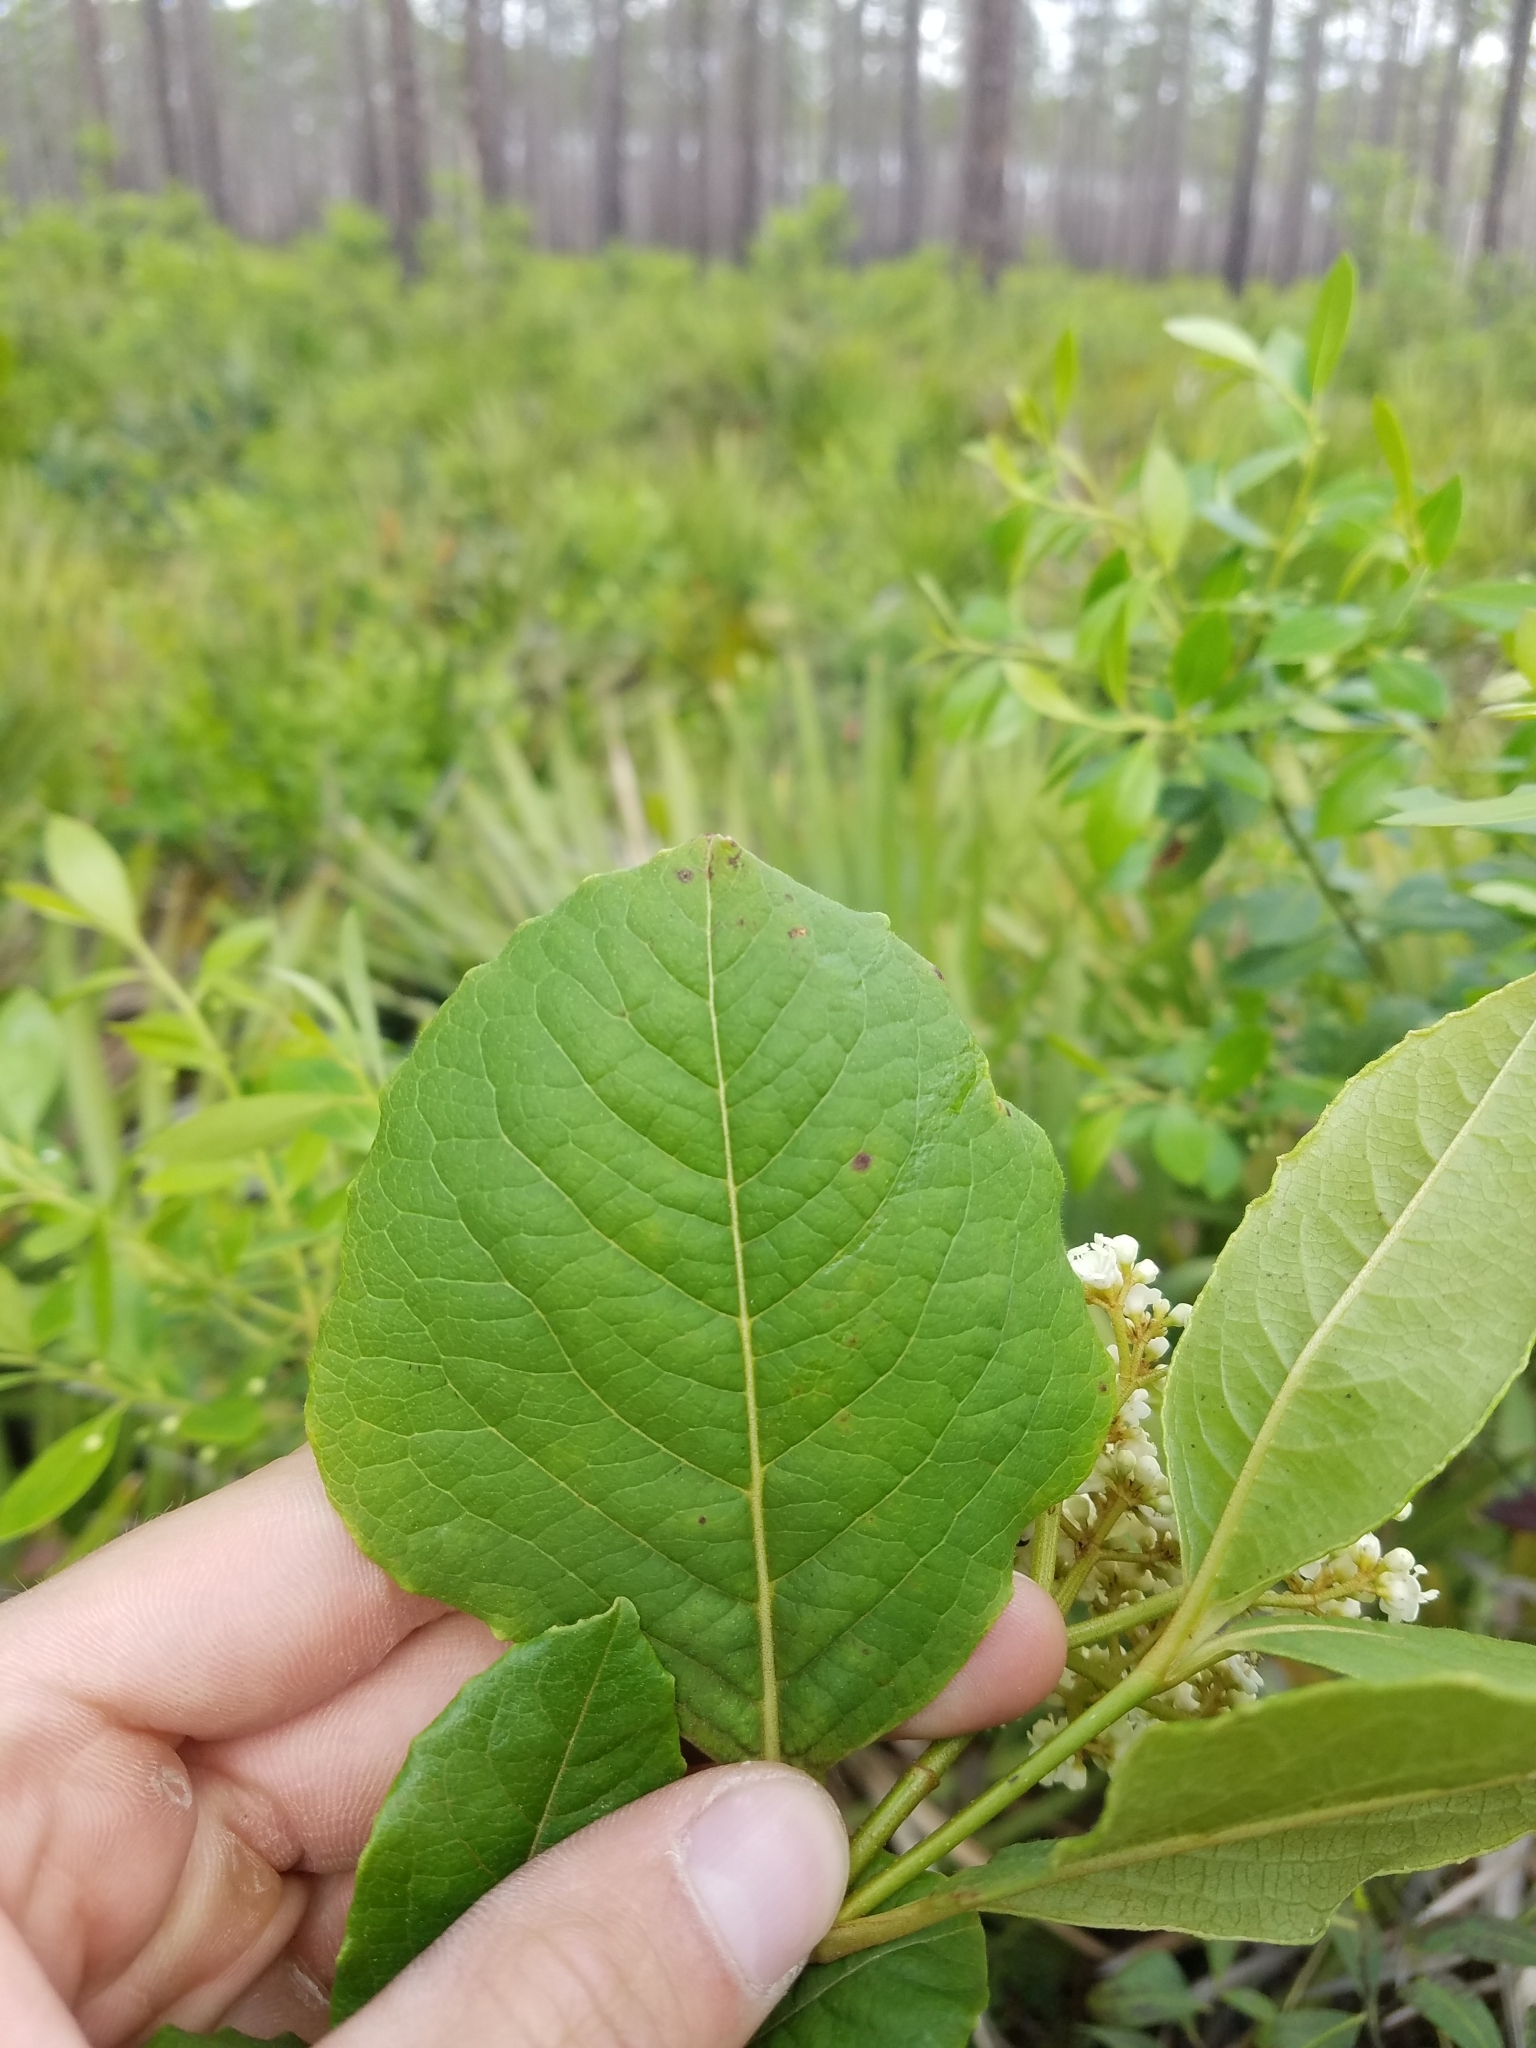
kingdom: Plantae
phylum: Tracheophyta
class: Magnoliopsida
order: Dipsacales
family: Viburnaceae
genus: Viburnum
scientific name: Viburnum nudum
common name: Possum haw
